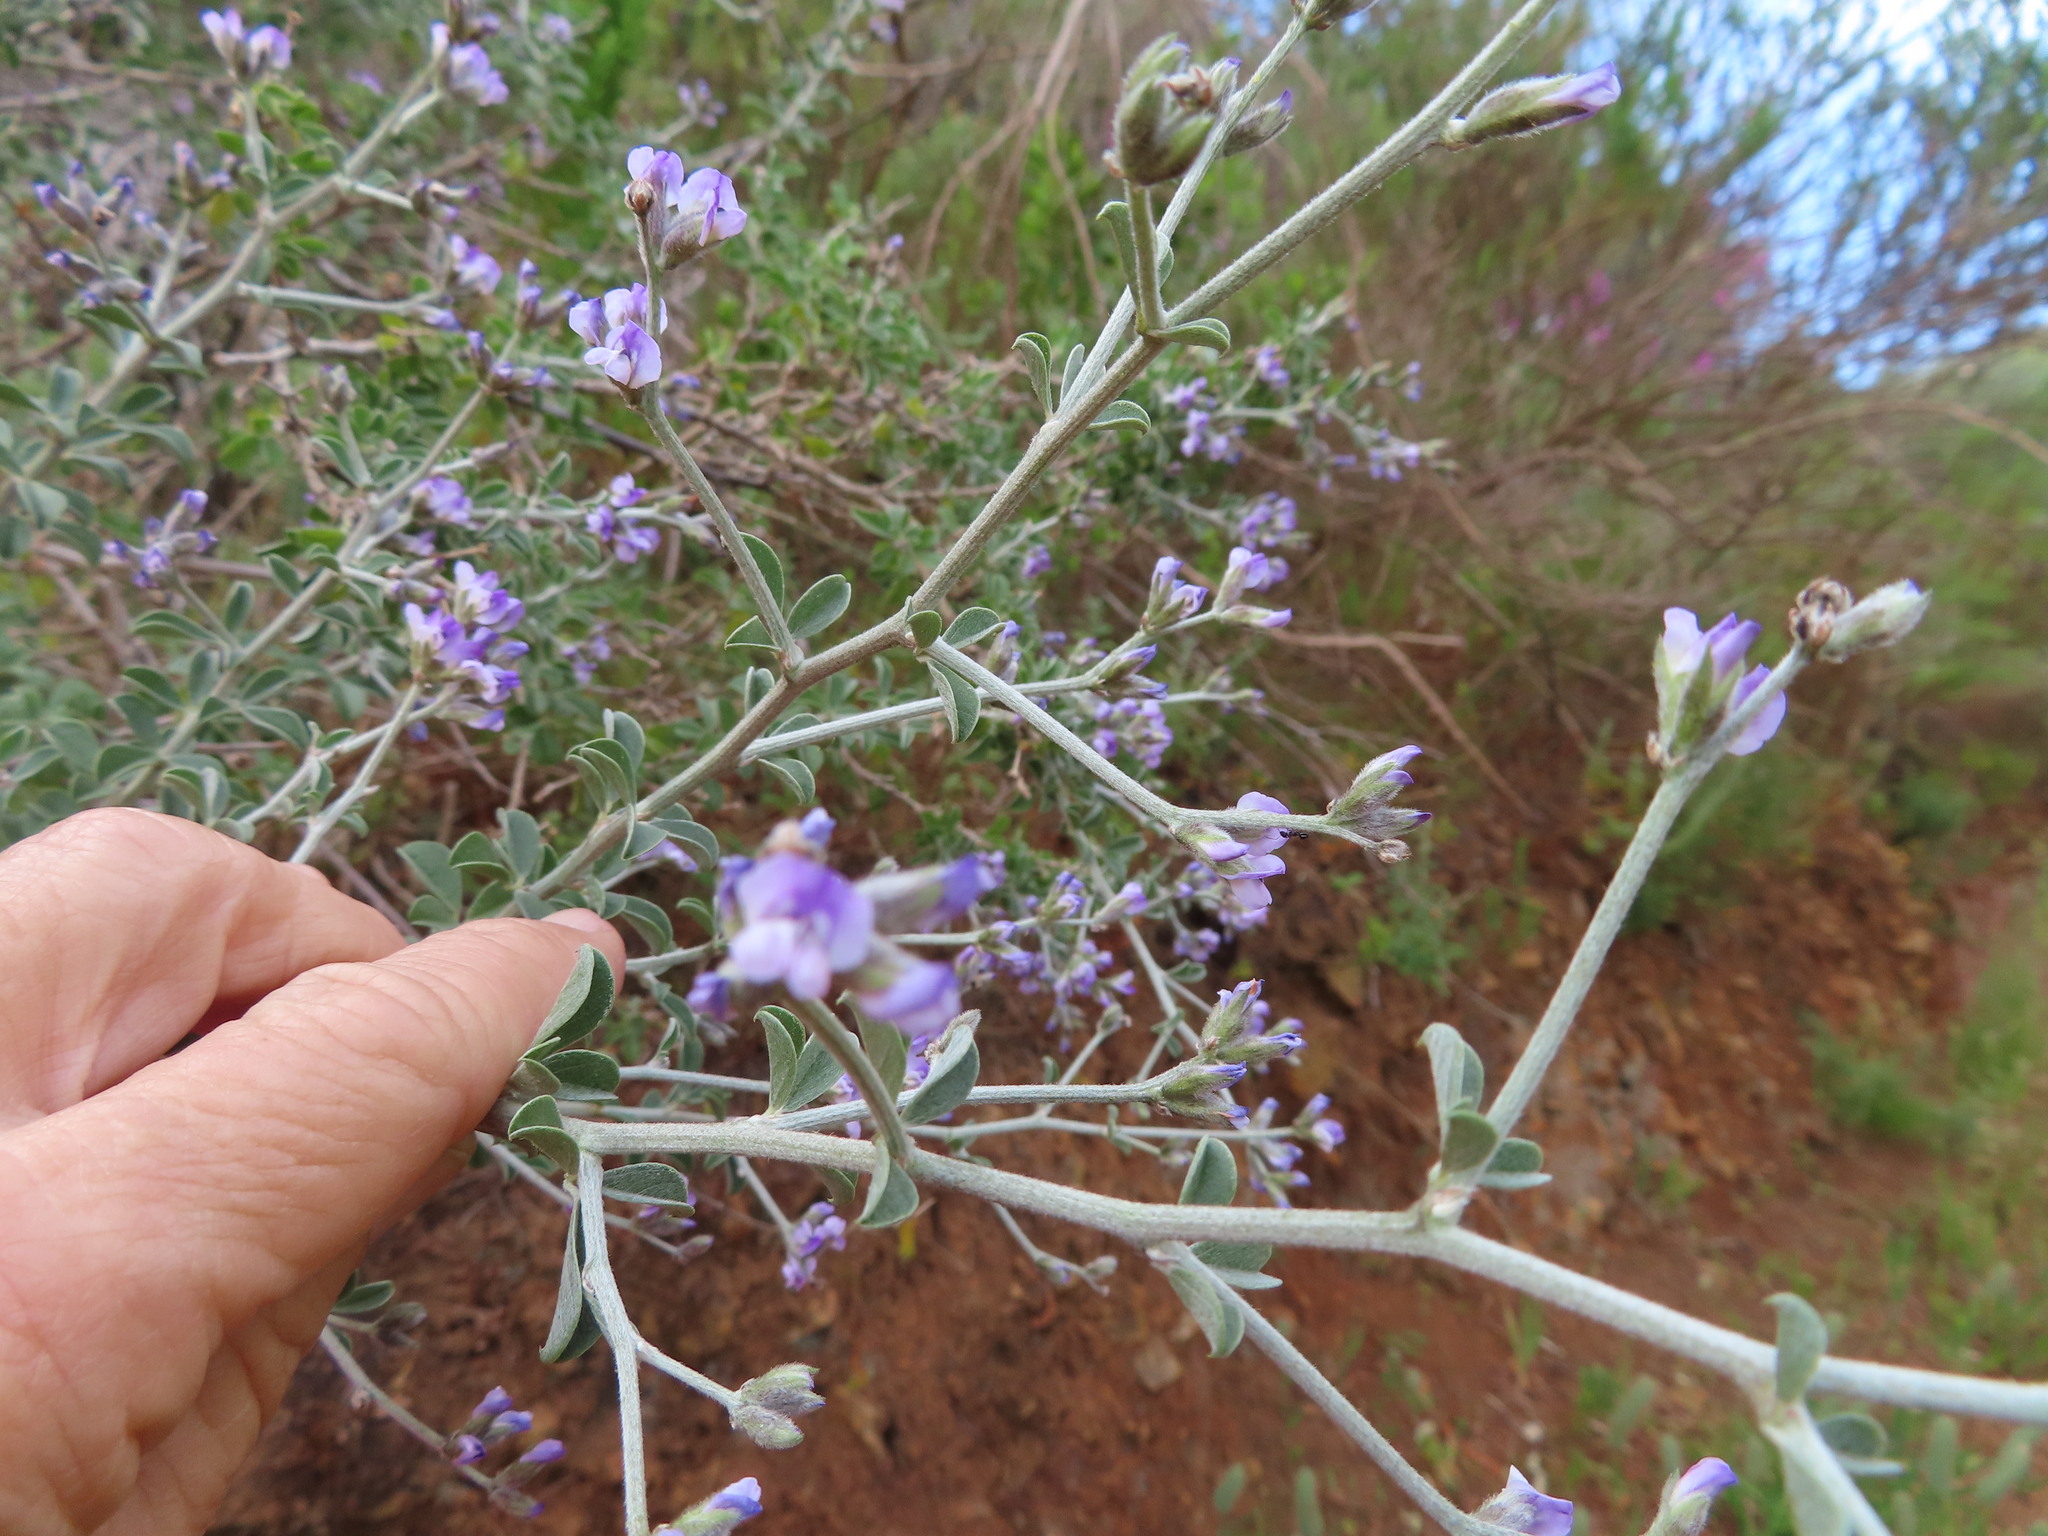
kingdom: Plantae
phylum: Tracheophyta
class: Magnoliopsida
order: Fabales
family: Fabaceae
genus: Psoralea
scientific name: Psoralea hirta
